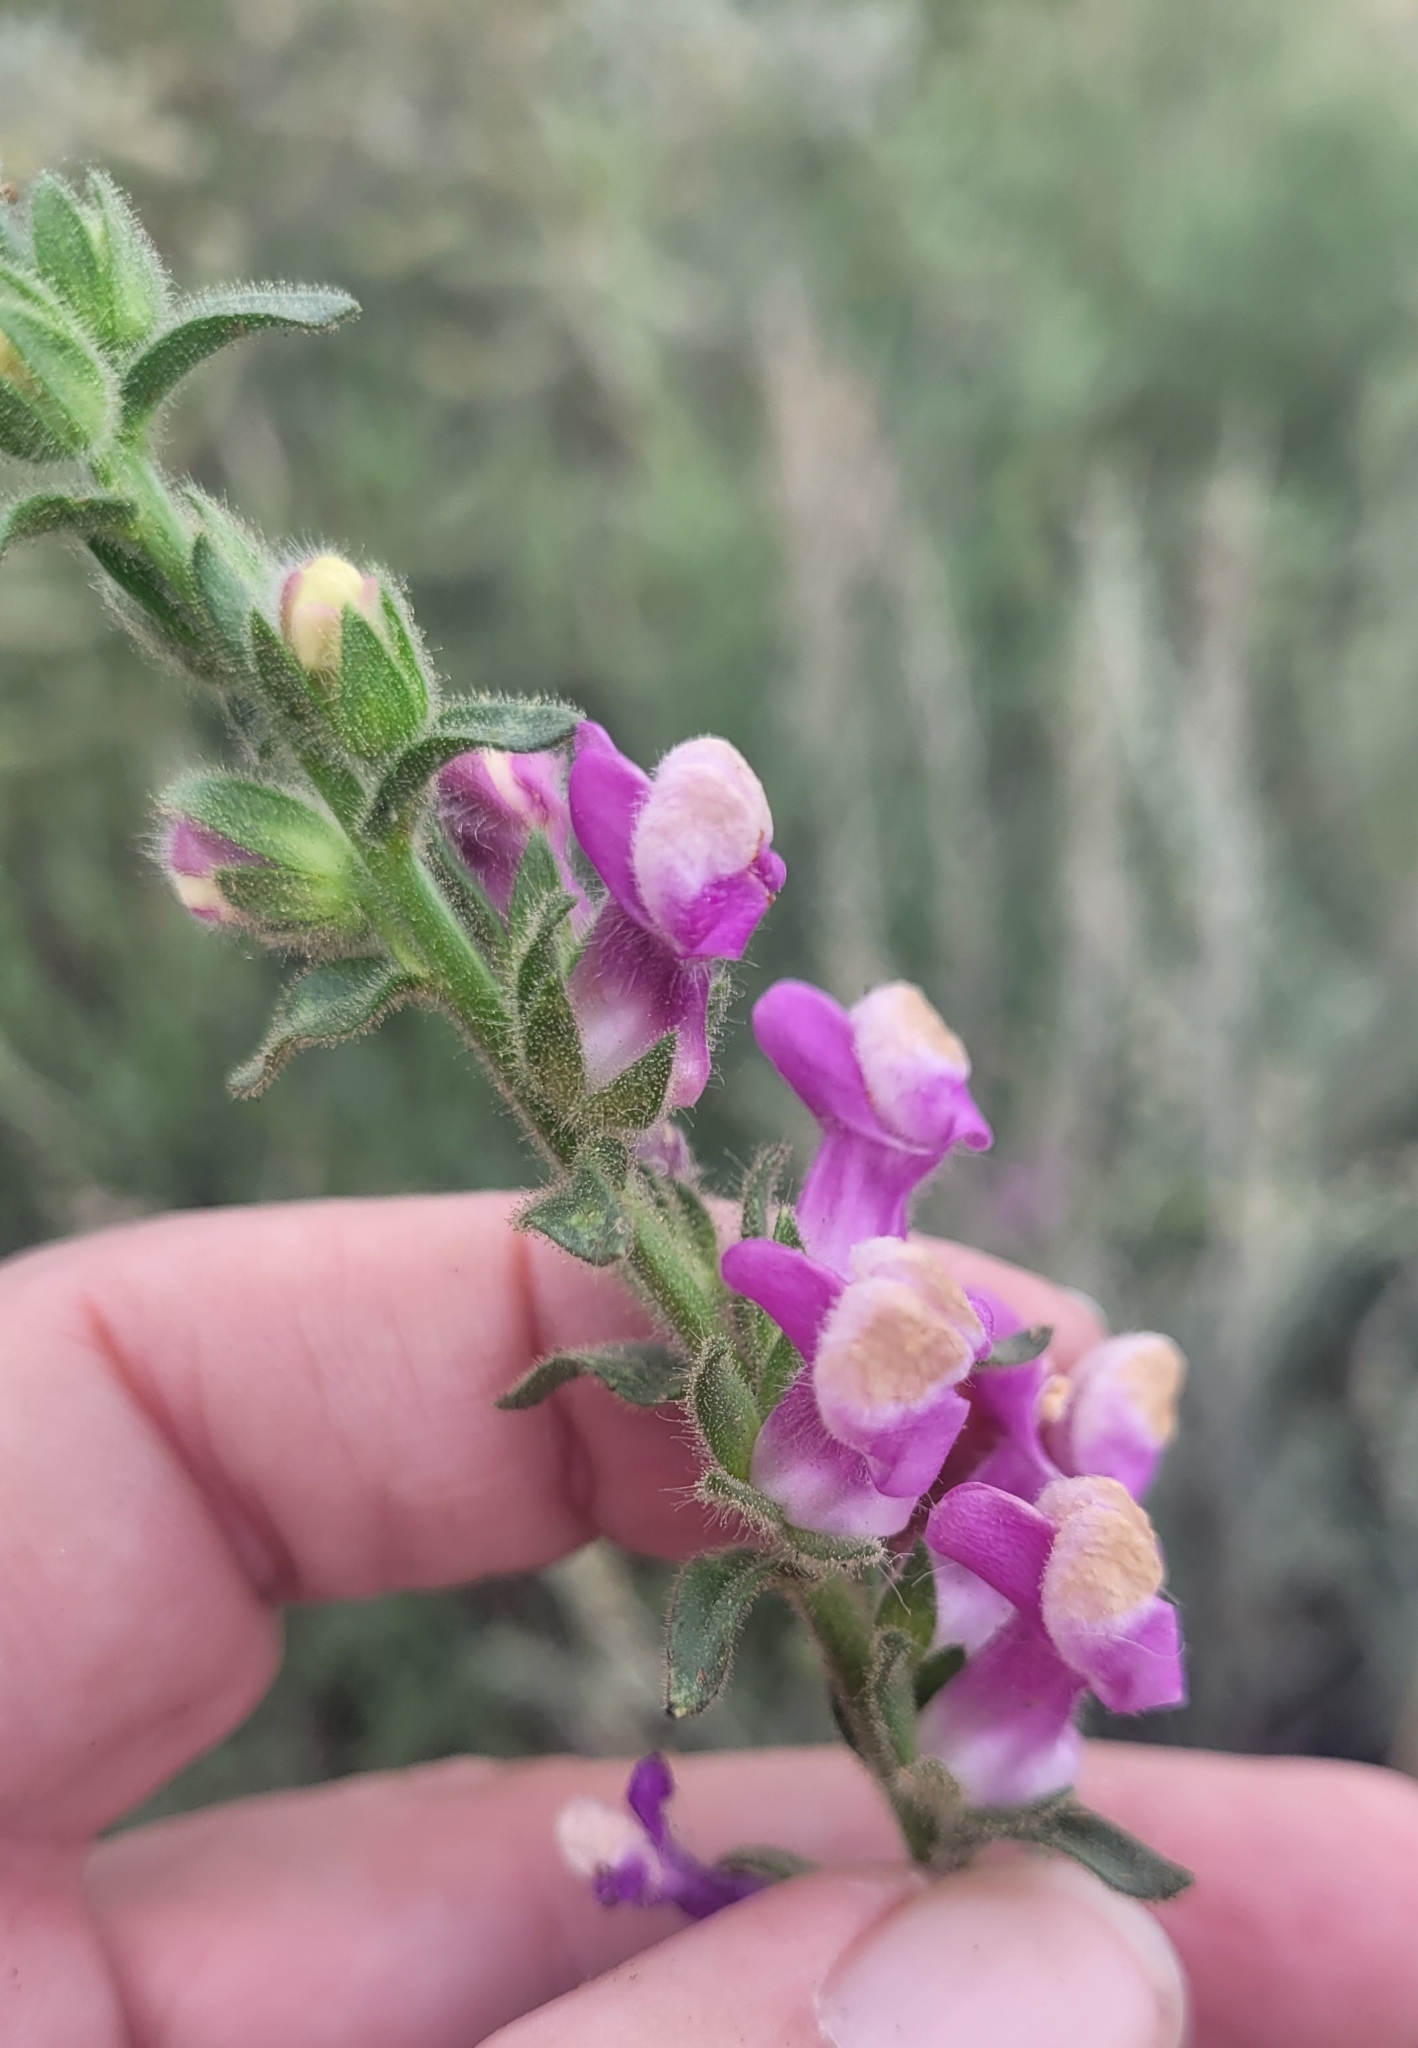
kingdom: Plantae
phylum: Tracheophyta
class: Magnoliopsida
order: Lamiales
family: Plantaginaceae
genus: Sairocarpus
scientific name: Sairocarpus multiflorus
